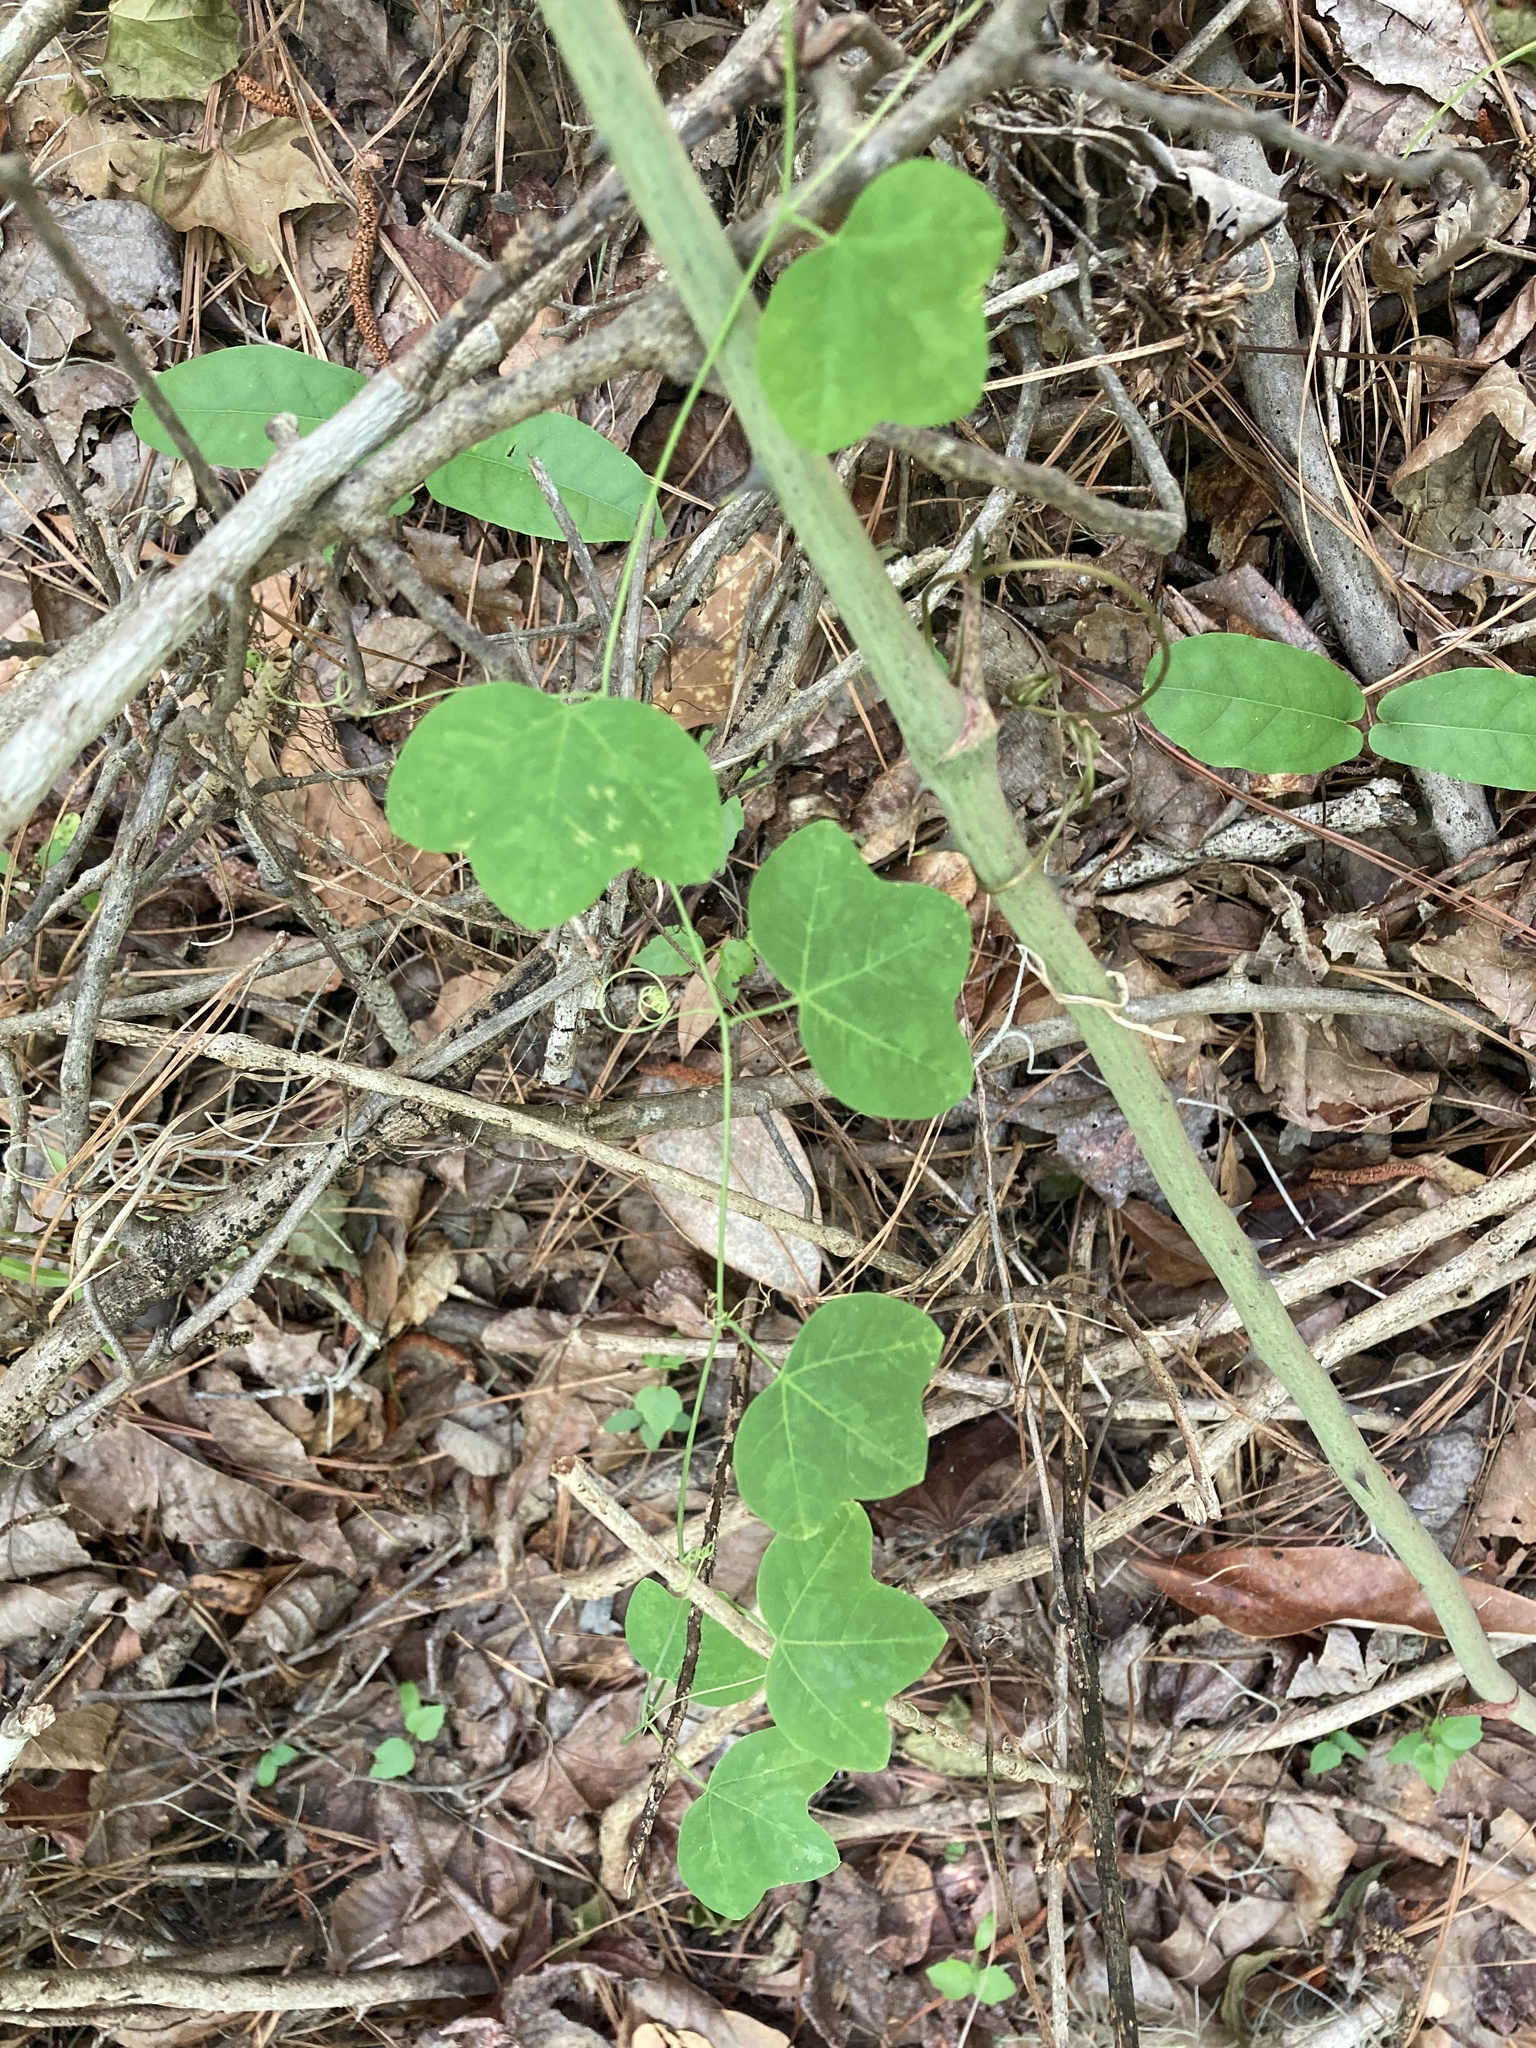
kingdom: Plantae
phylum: Tracheophyta
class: Magnoliopsida
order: Malpighiales
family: Passifloraceae
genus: Passiflora
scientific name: Passiflora lutea
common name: Yellow passionflower
